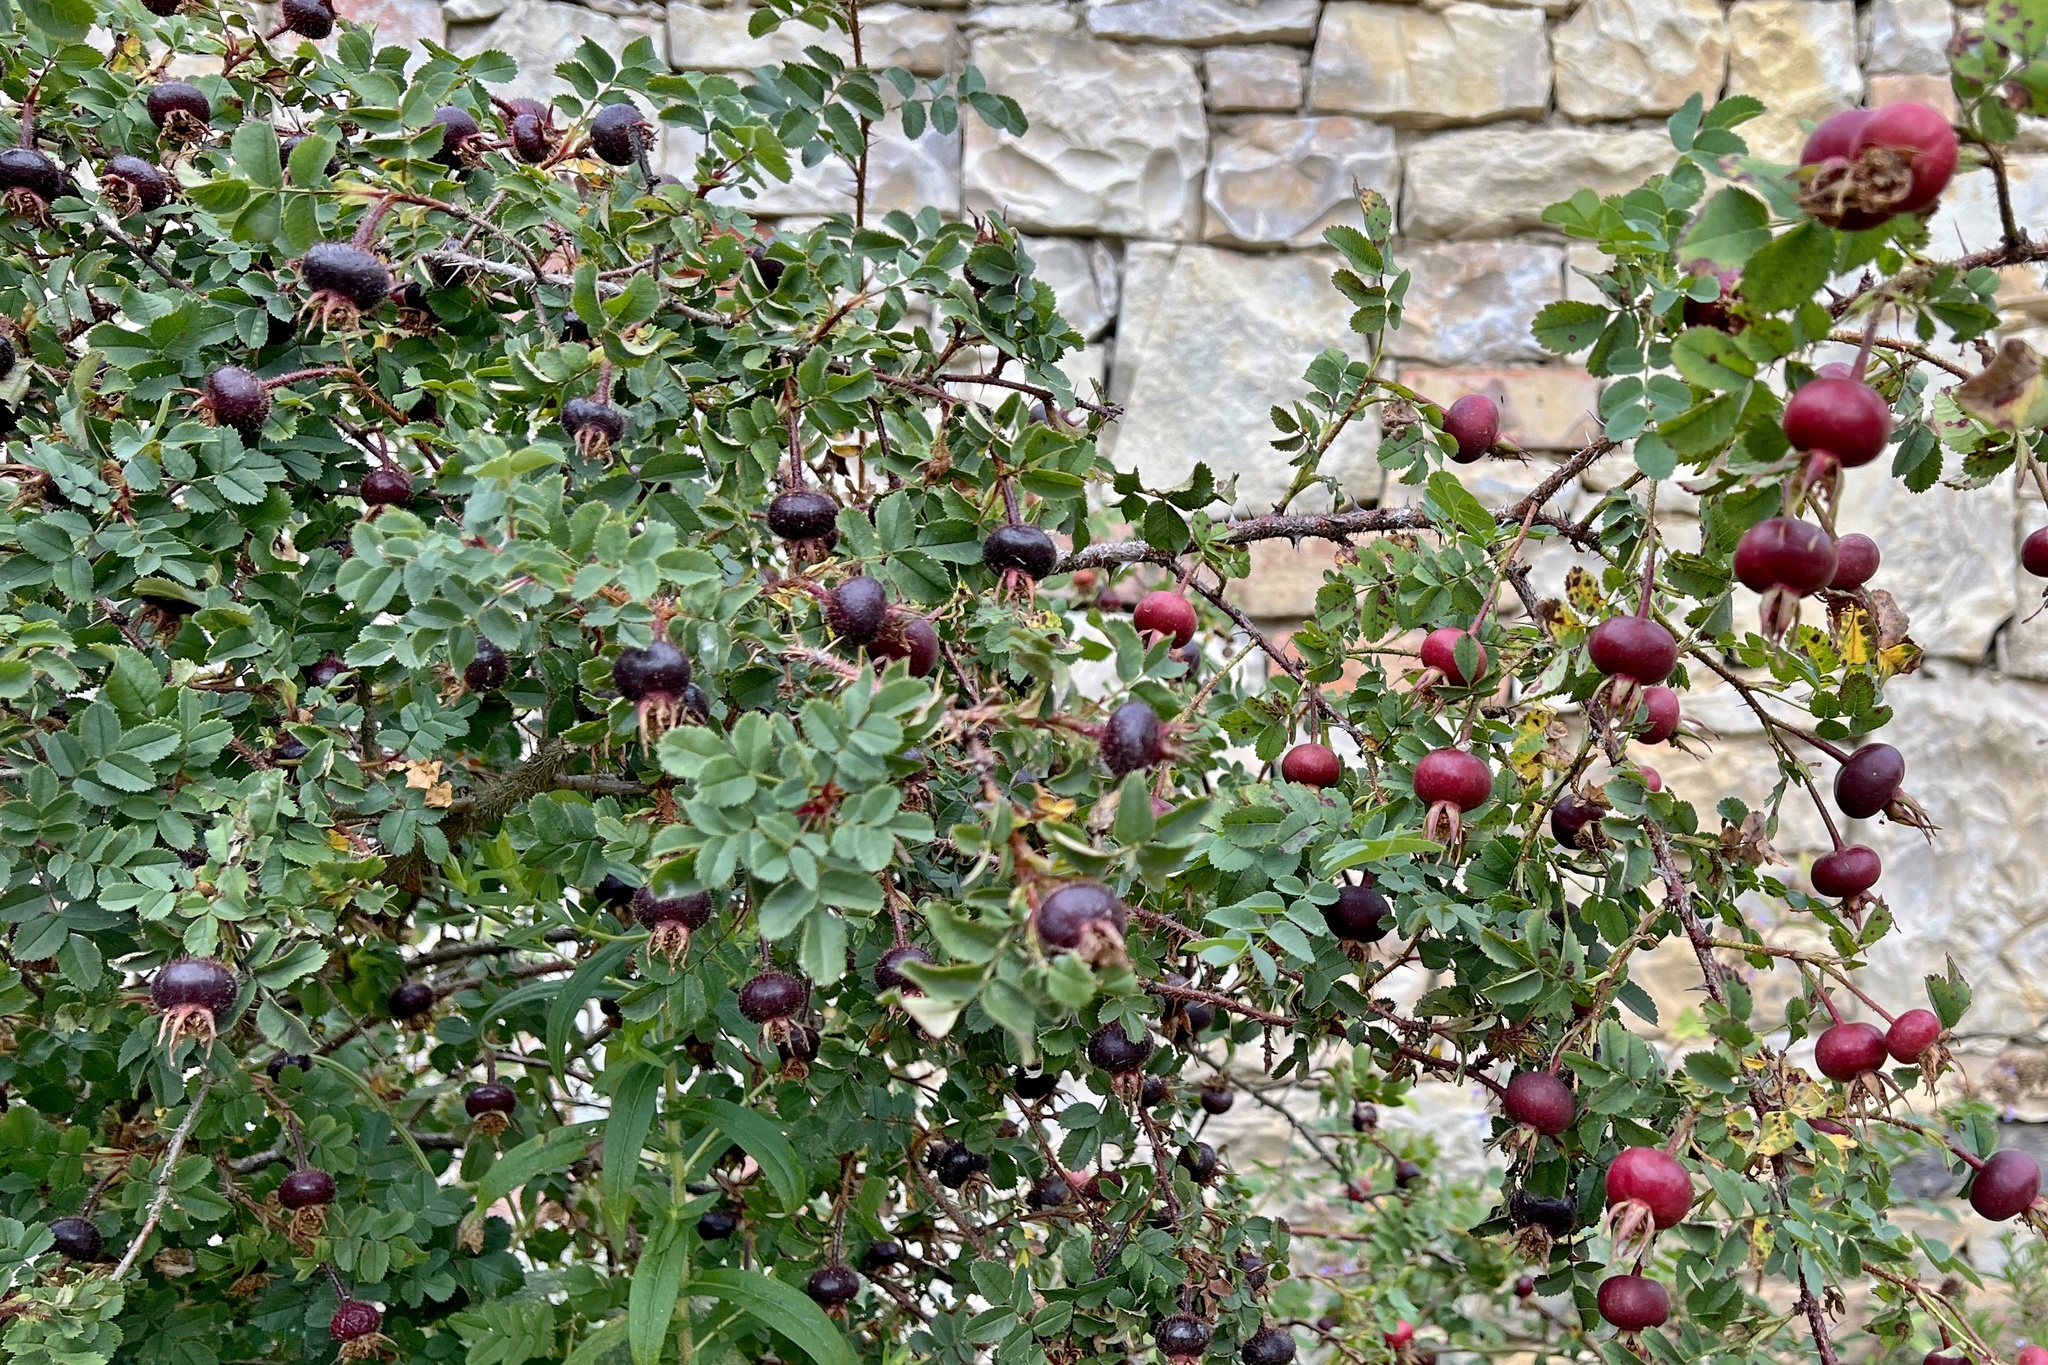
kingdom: Plantae
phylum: Tracheophyta
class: Magnoliopsida
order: Rosales
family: Rosaceae
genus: Rosa
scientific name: Rosa spinosissima
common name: Burnet rose
